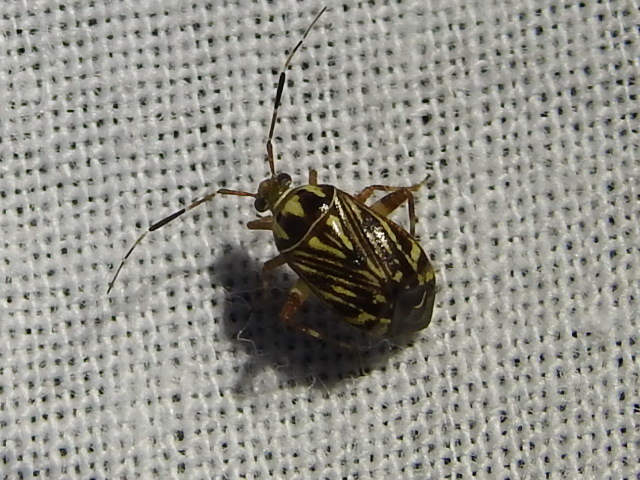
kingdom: Animalia
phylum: Arthropoda
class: Insecta
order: Hemiptera
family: Miridae
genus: Taedia
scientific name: Taedia virgulata
